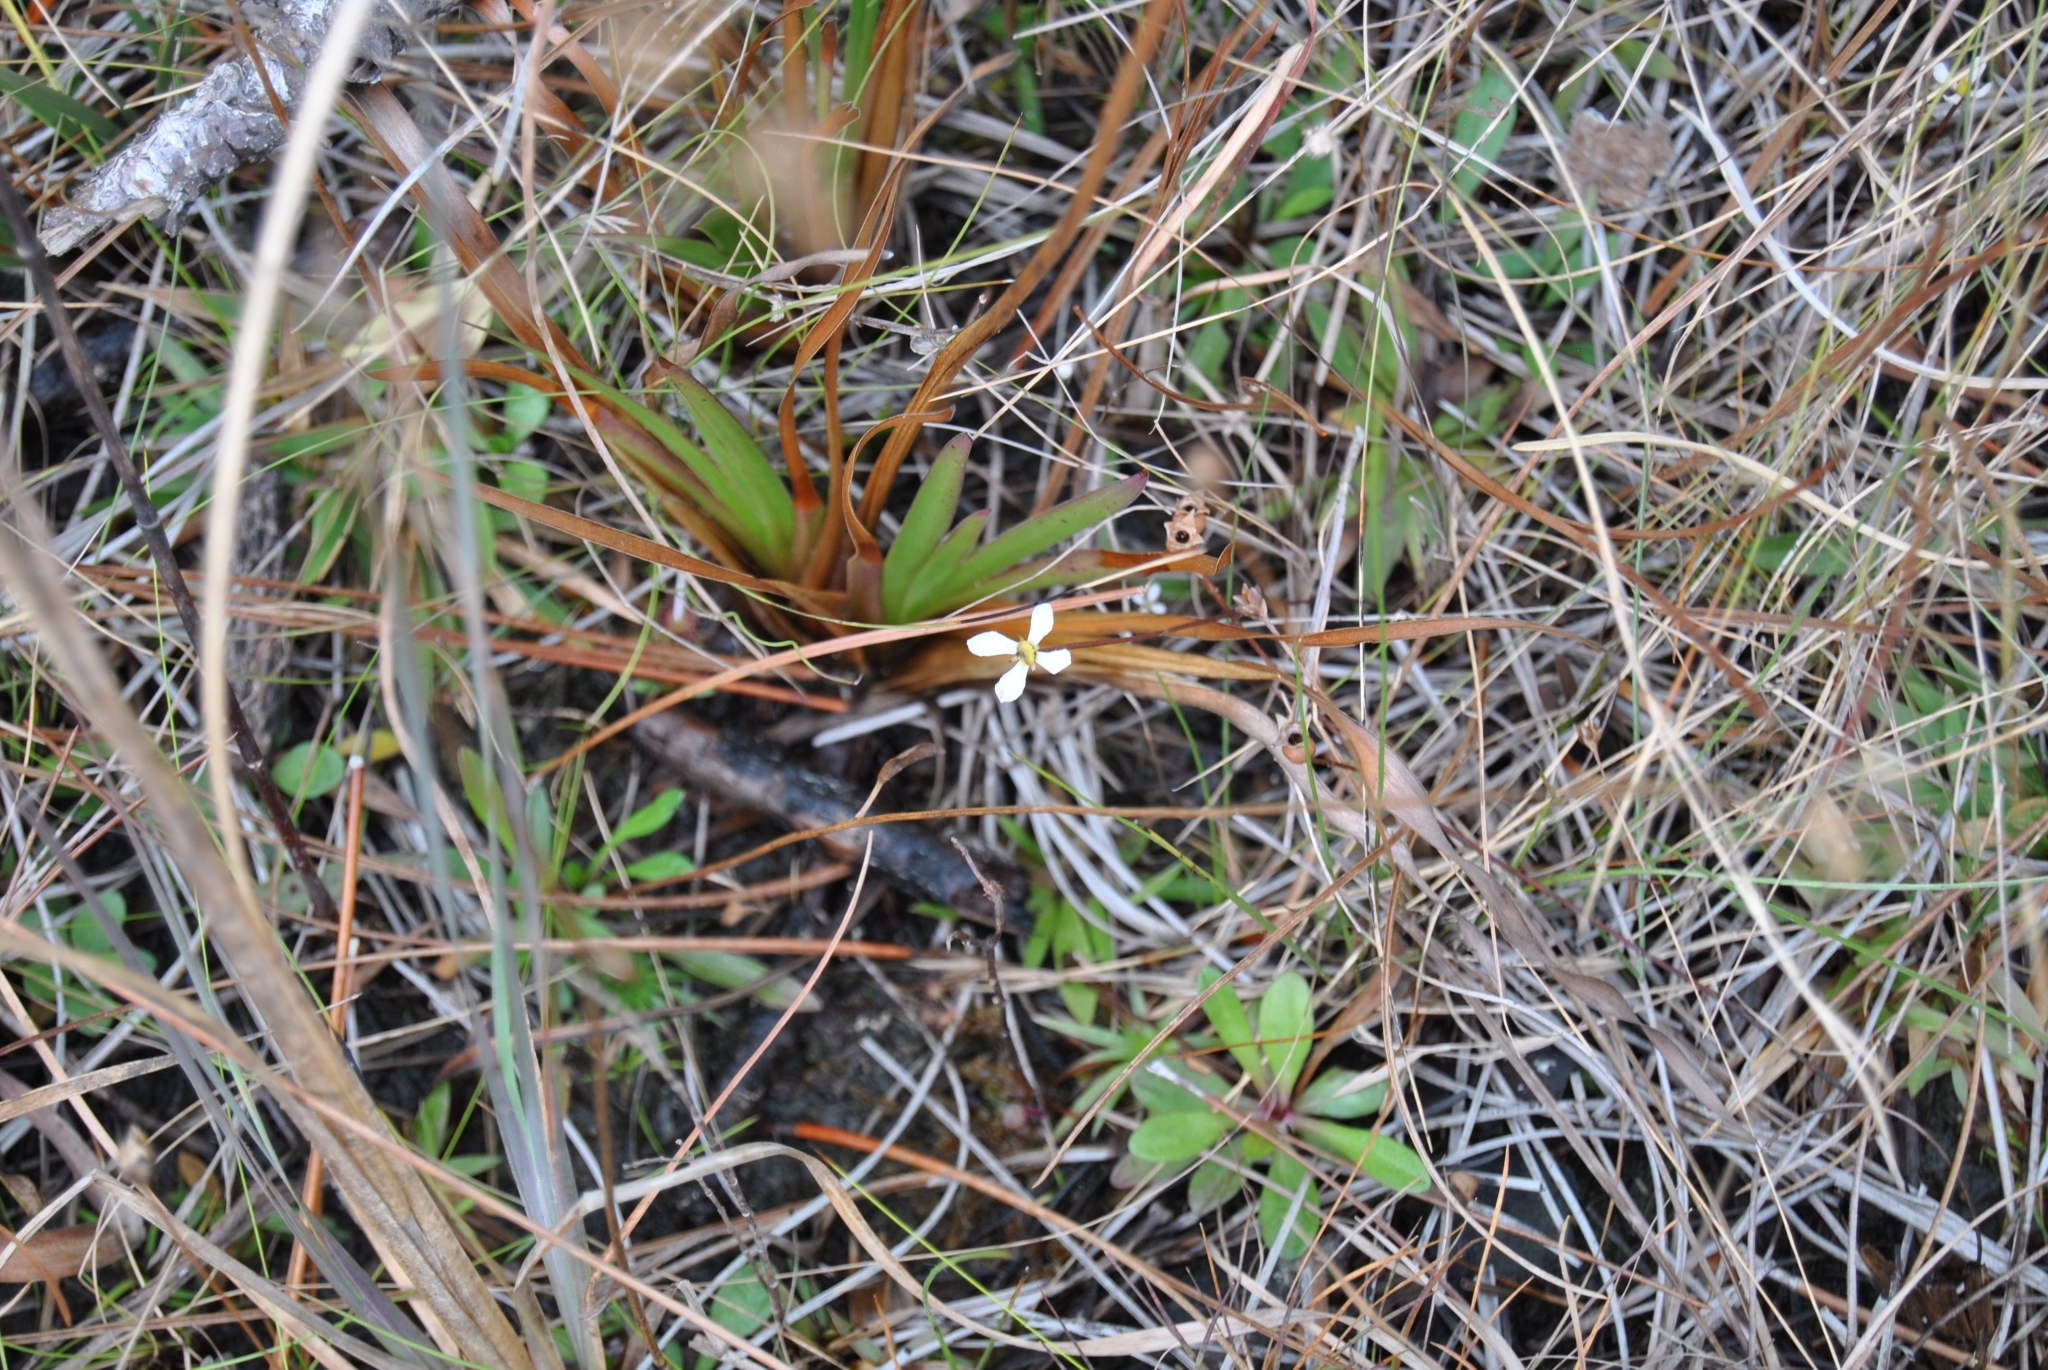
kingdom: Plantae
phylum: Tracheophyta
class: Magnoliopsida
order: Gentianales
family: Gentianaceae
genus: Bartonia
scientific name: Bartonia verna
